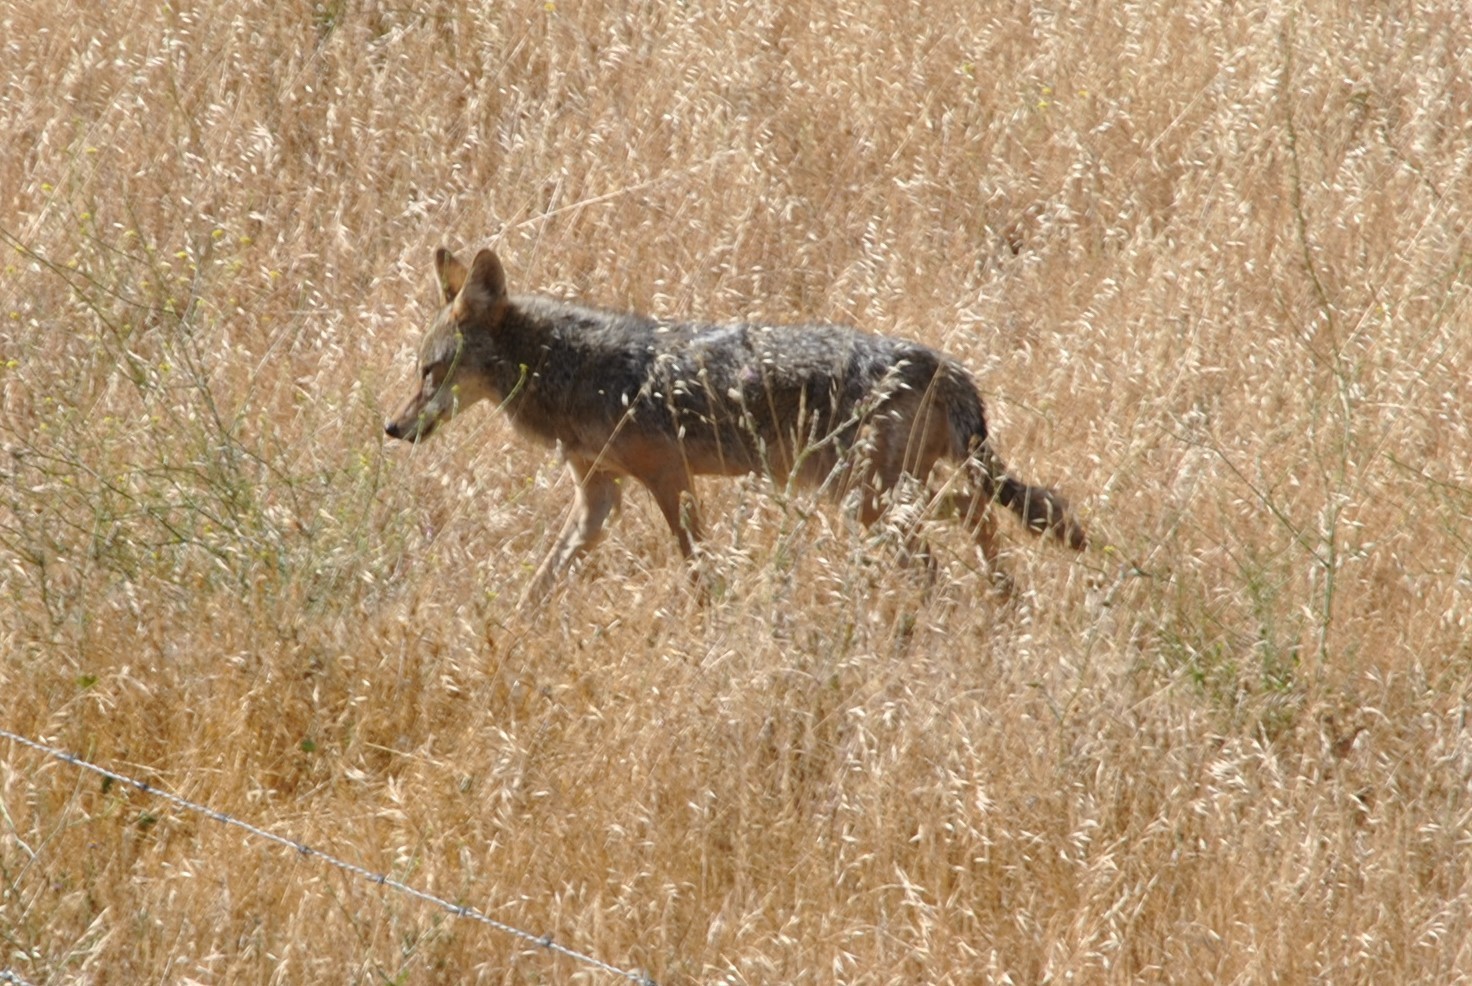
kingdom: Animalia
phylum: Chordata
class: Mammalia
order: Carnivora
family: Canidae
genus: Canis
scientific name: Canis latrans
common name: Coyote
